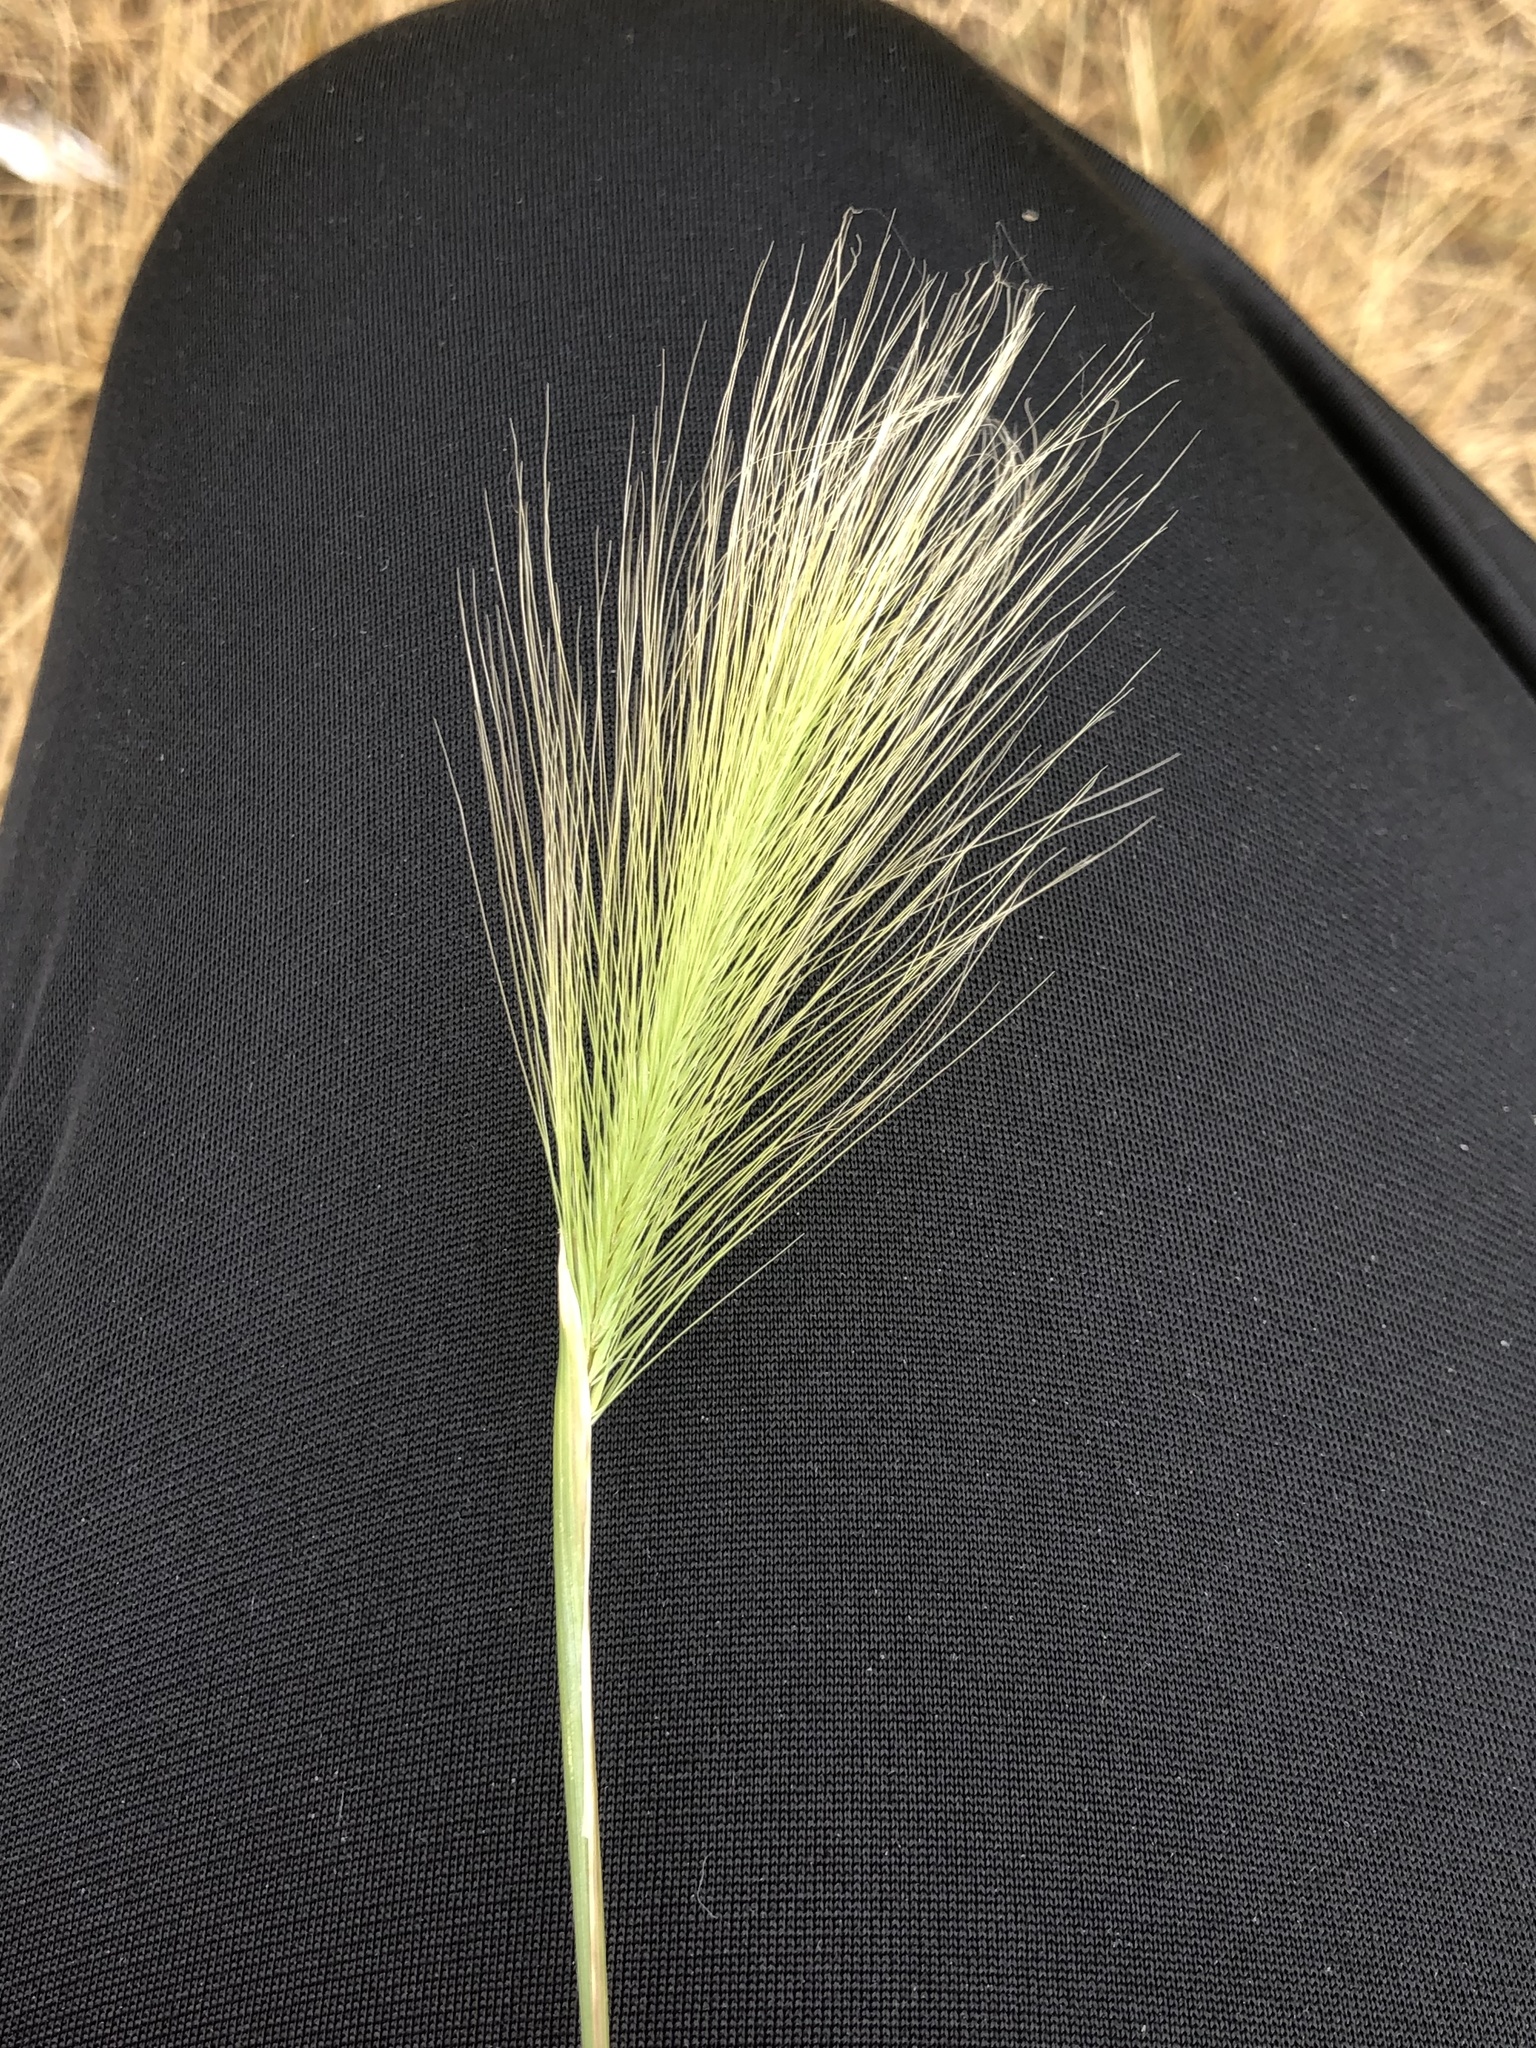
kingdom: Plantae
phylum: Tracheophyta
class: Liliopsida
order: Poales
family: Poaceae
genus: Hordeum
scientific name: Hordeum jubatum
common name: Foxtail barley
